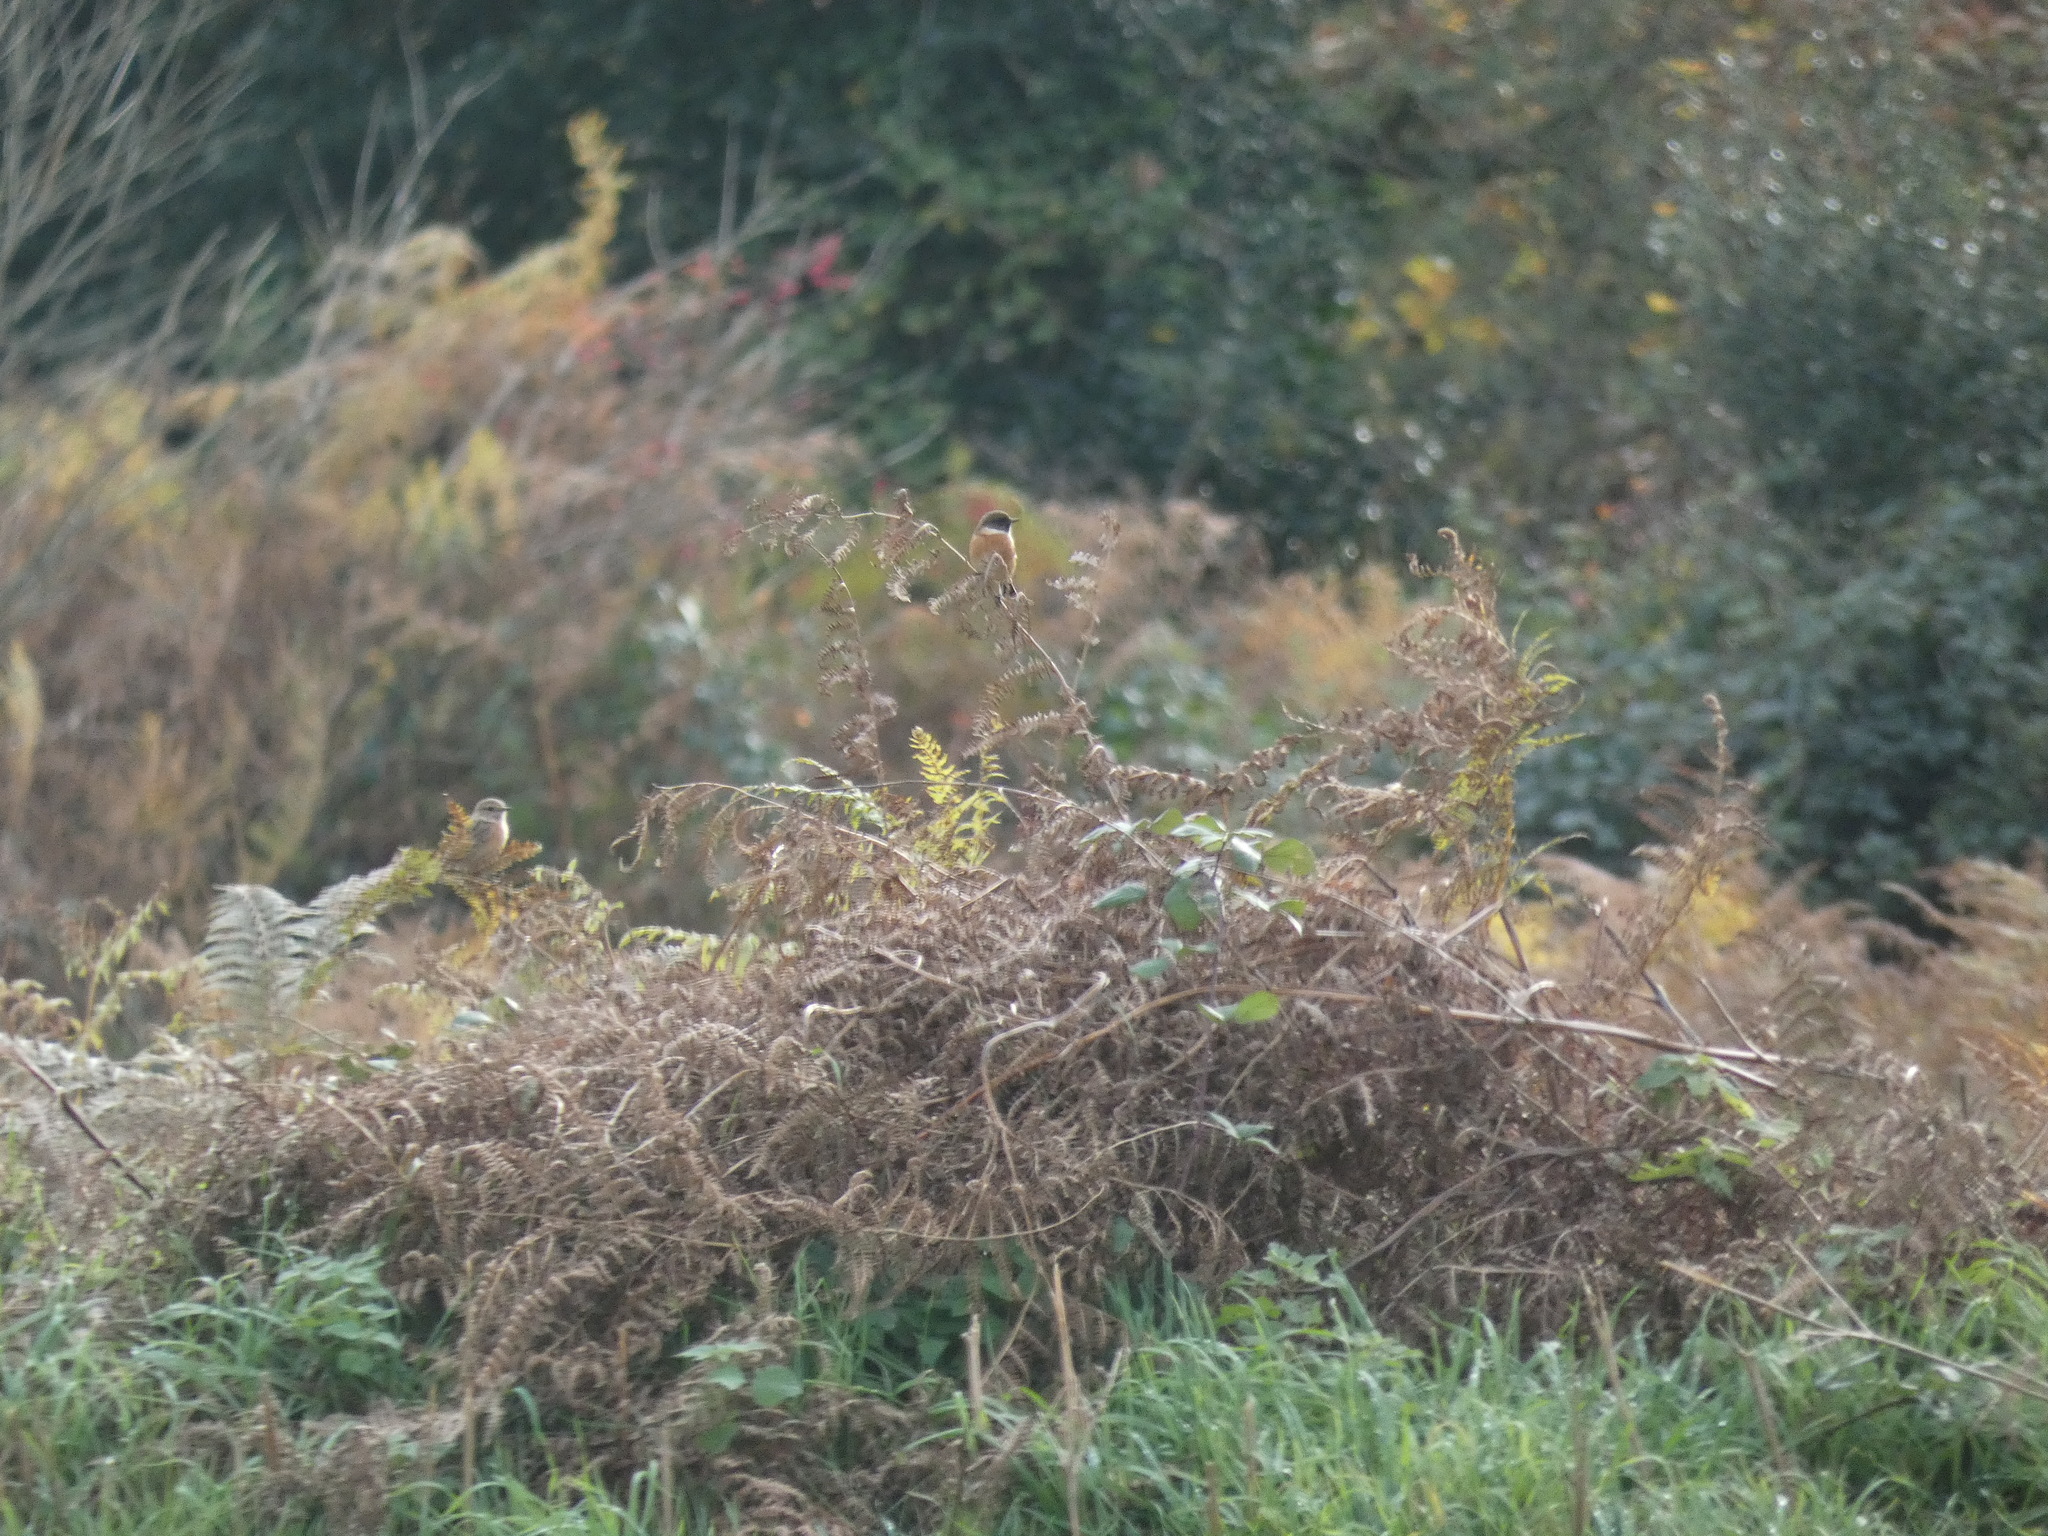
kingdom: Animalia
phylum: Chordata
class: Aves
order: Passeriformes
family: Muscicapidae
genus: Saxicola
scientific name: Saxicola rubicola
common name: European stonechat
